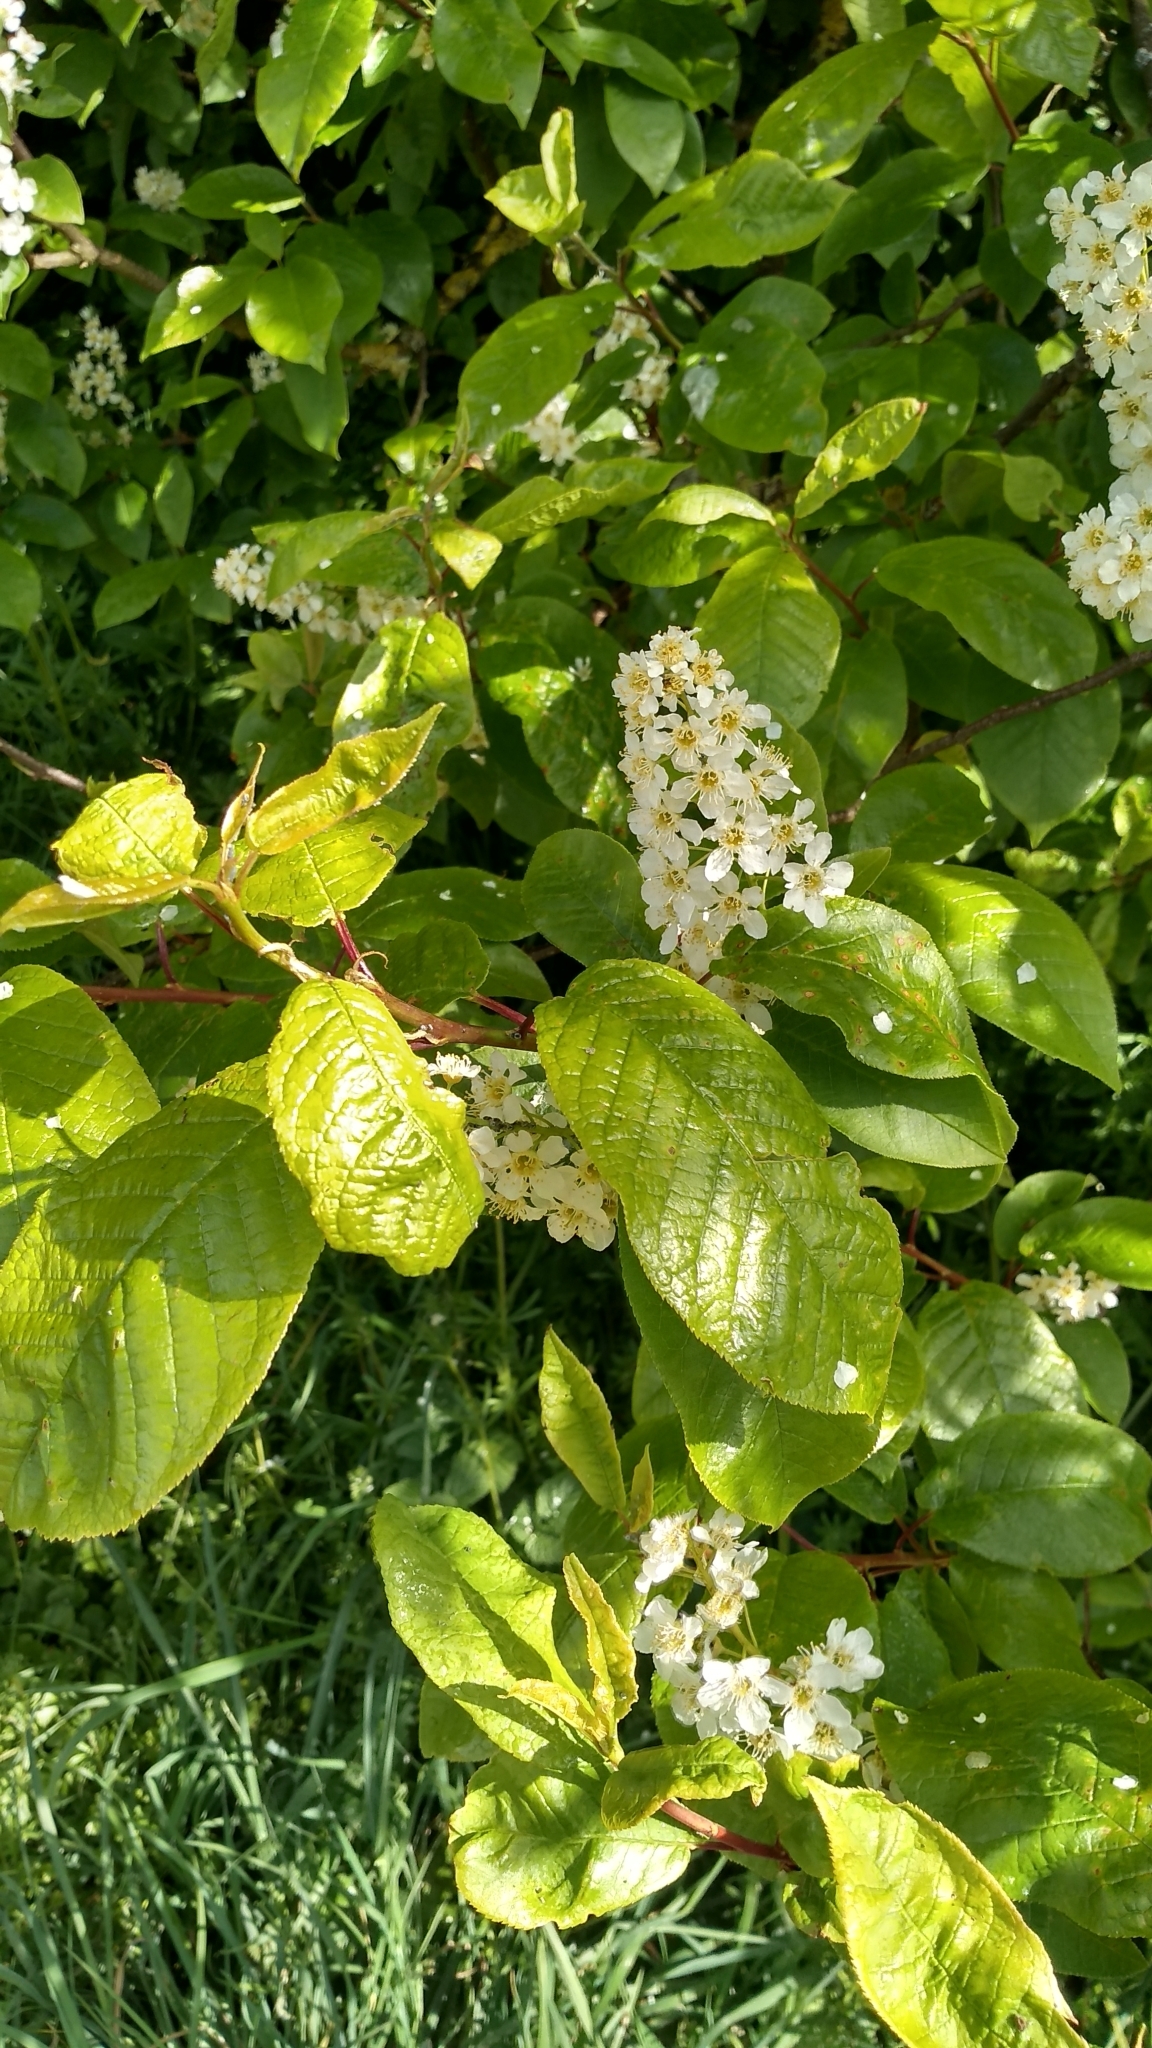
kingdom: Plantae
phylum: Tracheophyta
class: Magnoliopsida
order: Rosales
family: Rosaceae
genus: Prunus
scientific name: Prunus padus
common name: Bird cherry
